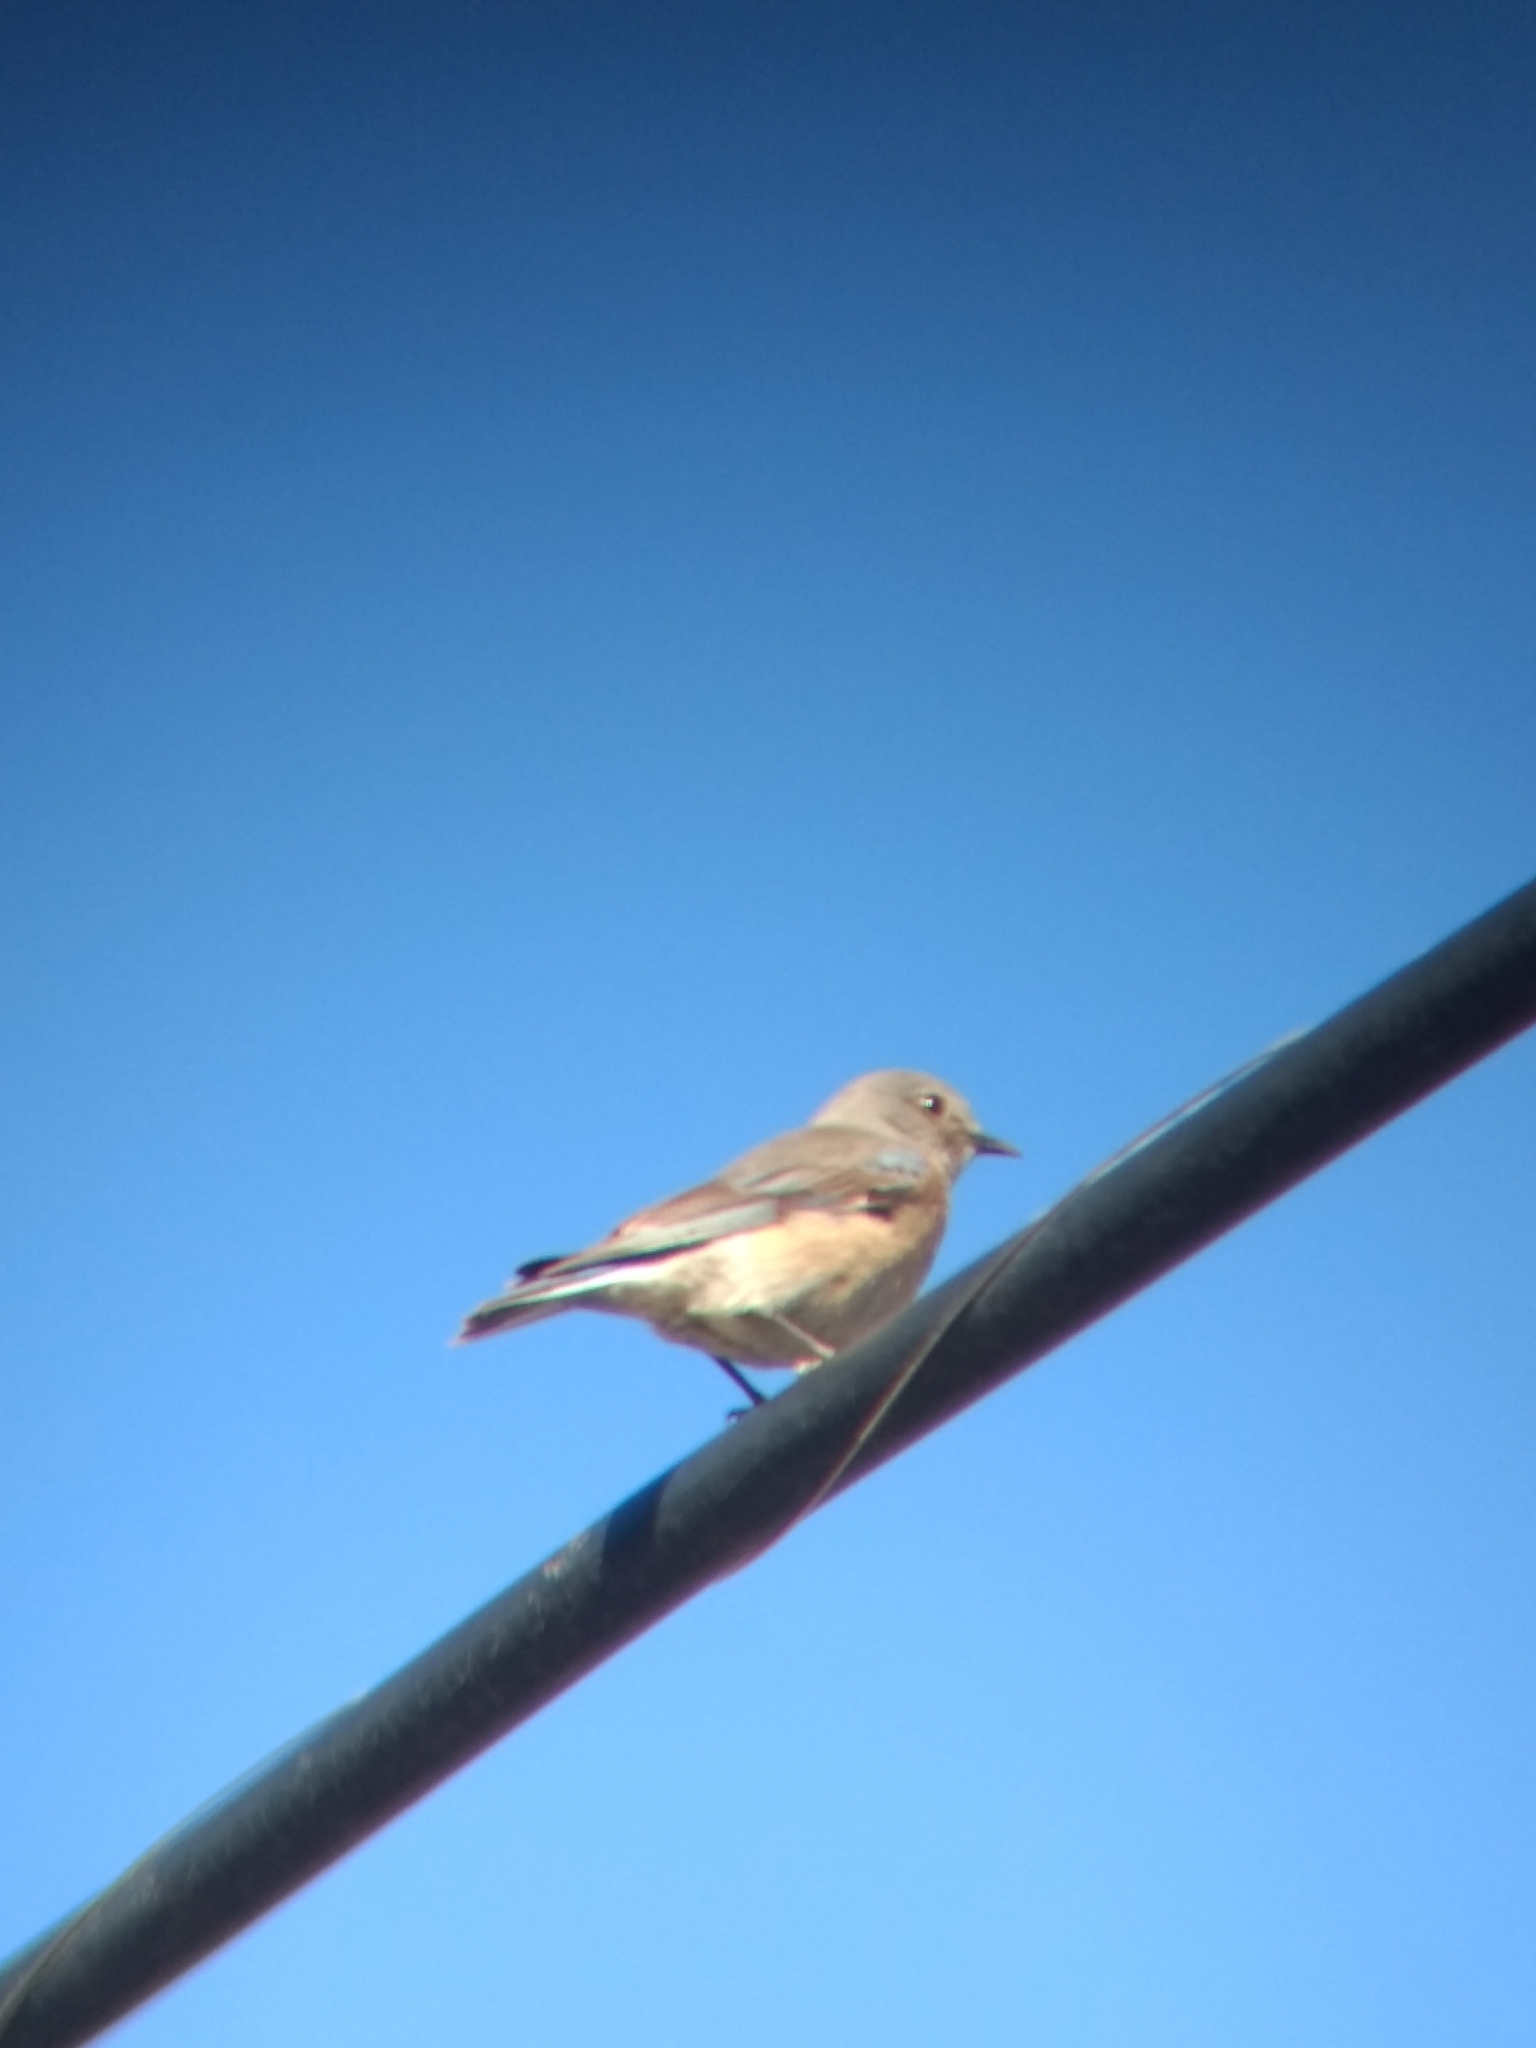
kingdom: Animalia
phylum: Chordata
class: Aves
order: Passeriformes
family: Turdidae
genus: Sialia
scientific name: Sialia mexicana
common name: Western bluebird
